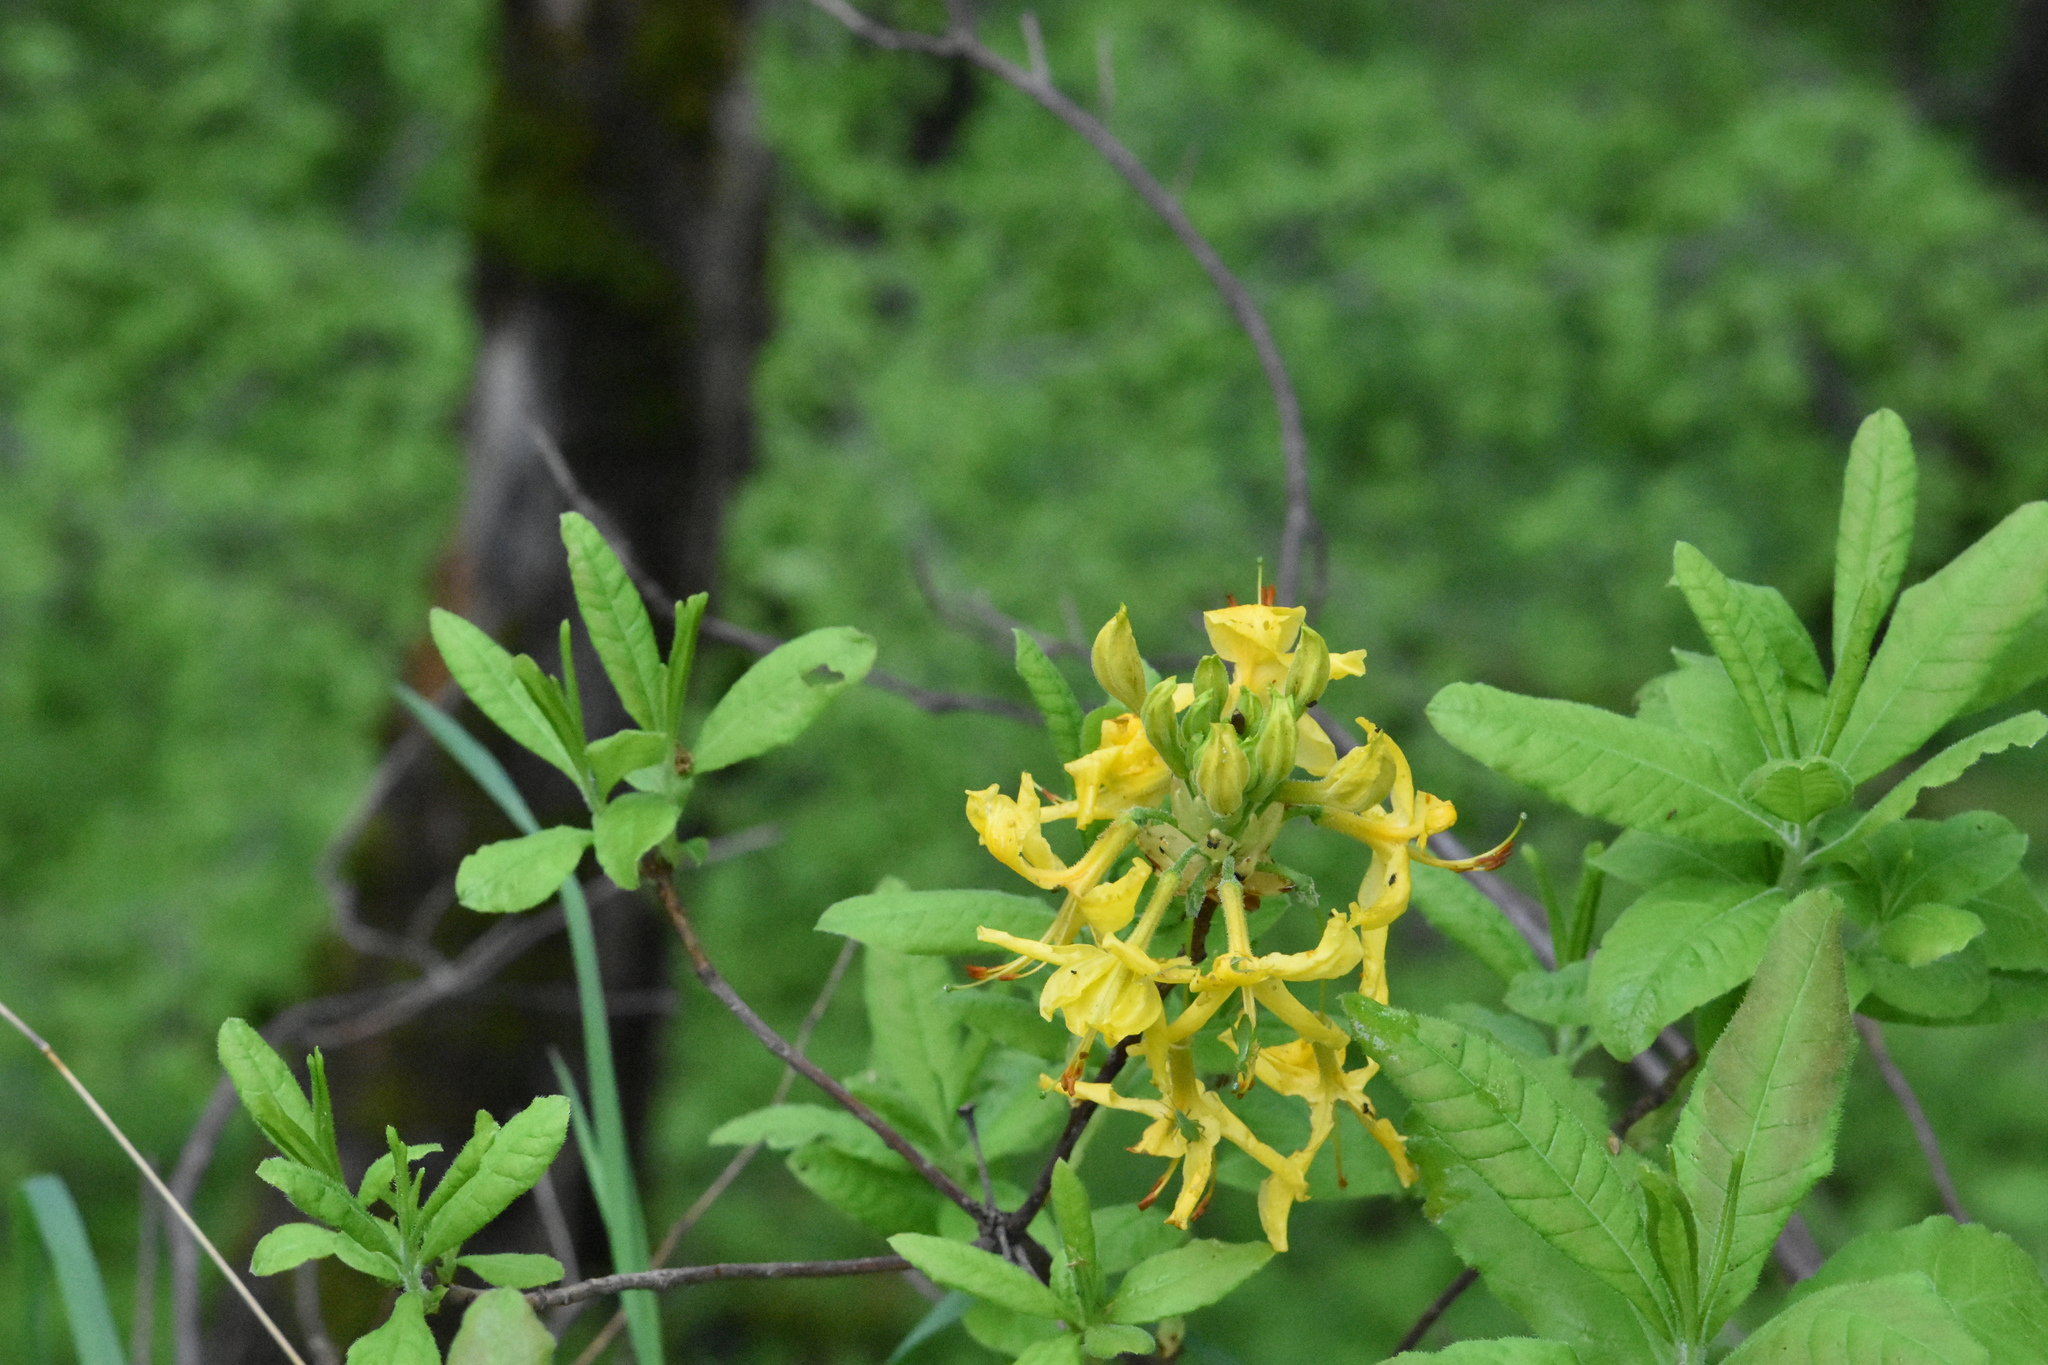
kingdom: Plantae
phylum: Tracheophyta
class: Magnoliopsida
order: Ericales
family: Ericaceae
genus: Rhododendron
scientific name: Rhododendron luteum
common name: Yellow azalea
